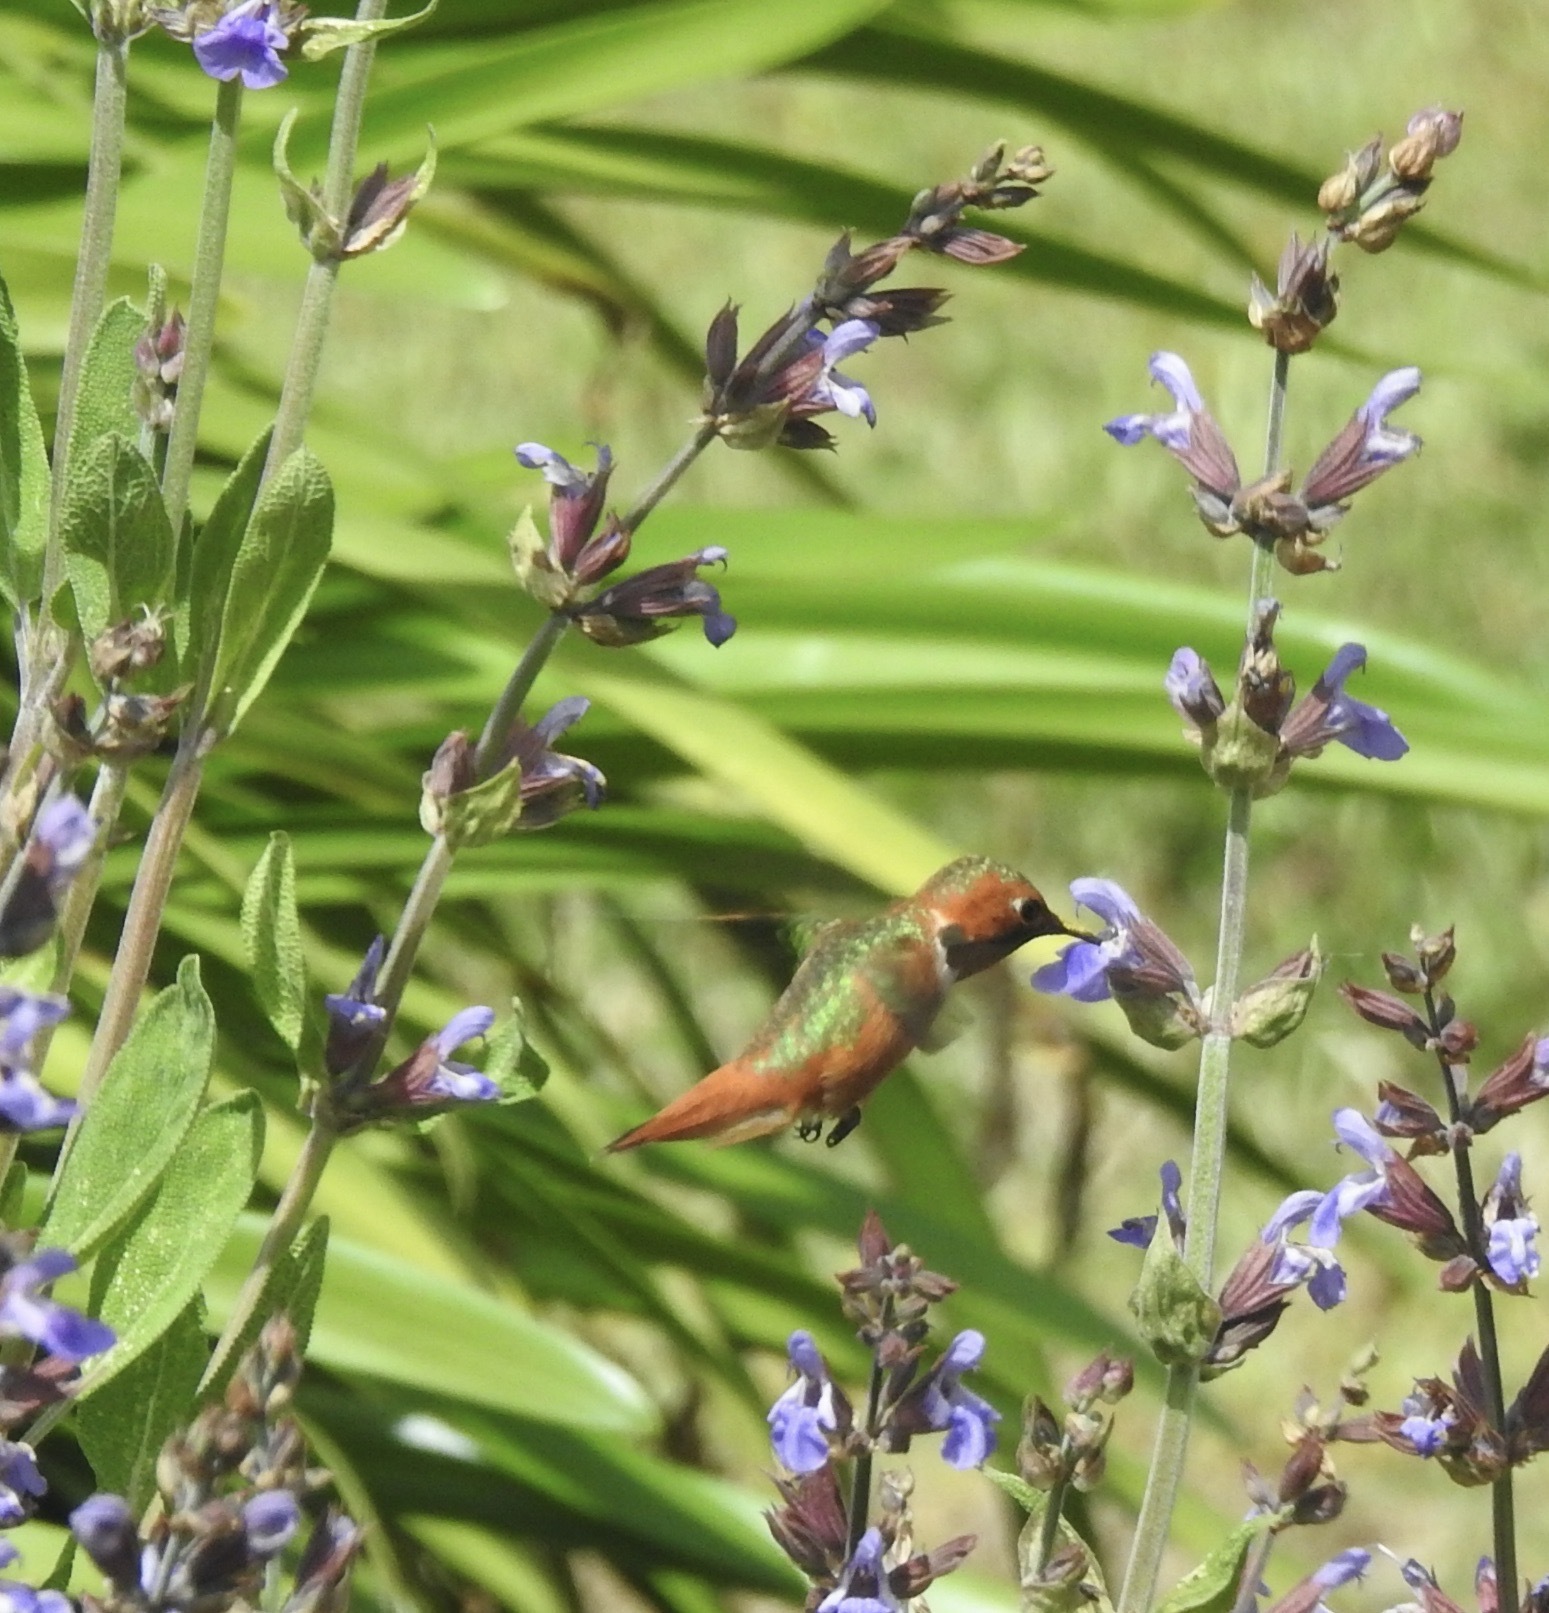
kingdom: Animalia
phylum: Chordata
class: Aves
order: Apodiformes
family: Trochilidae
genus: Selasphorus
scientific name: Selasphorus sasin
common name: Allen's hummingbird
